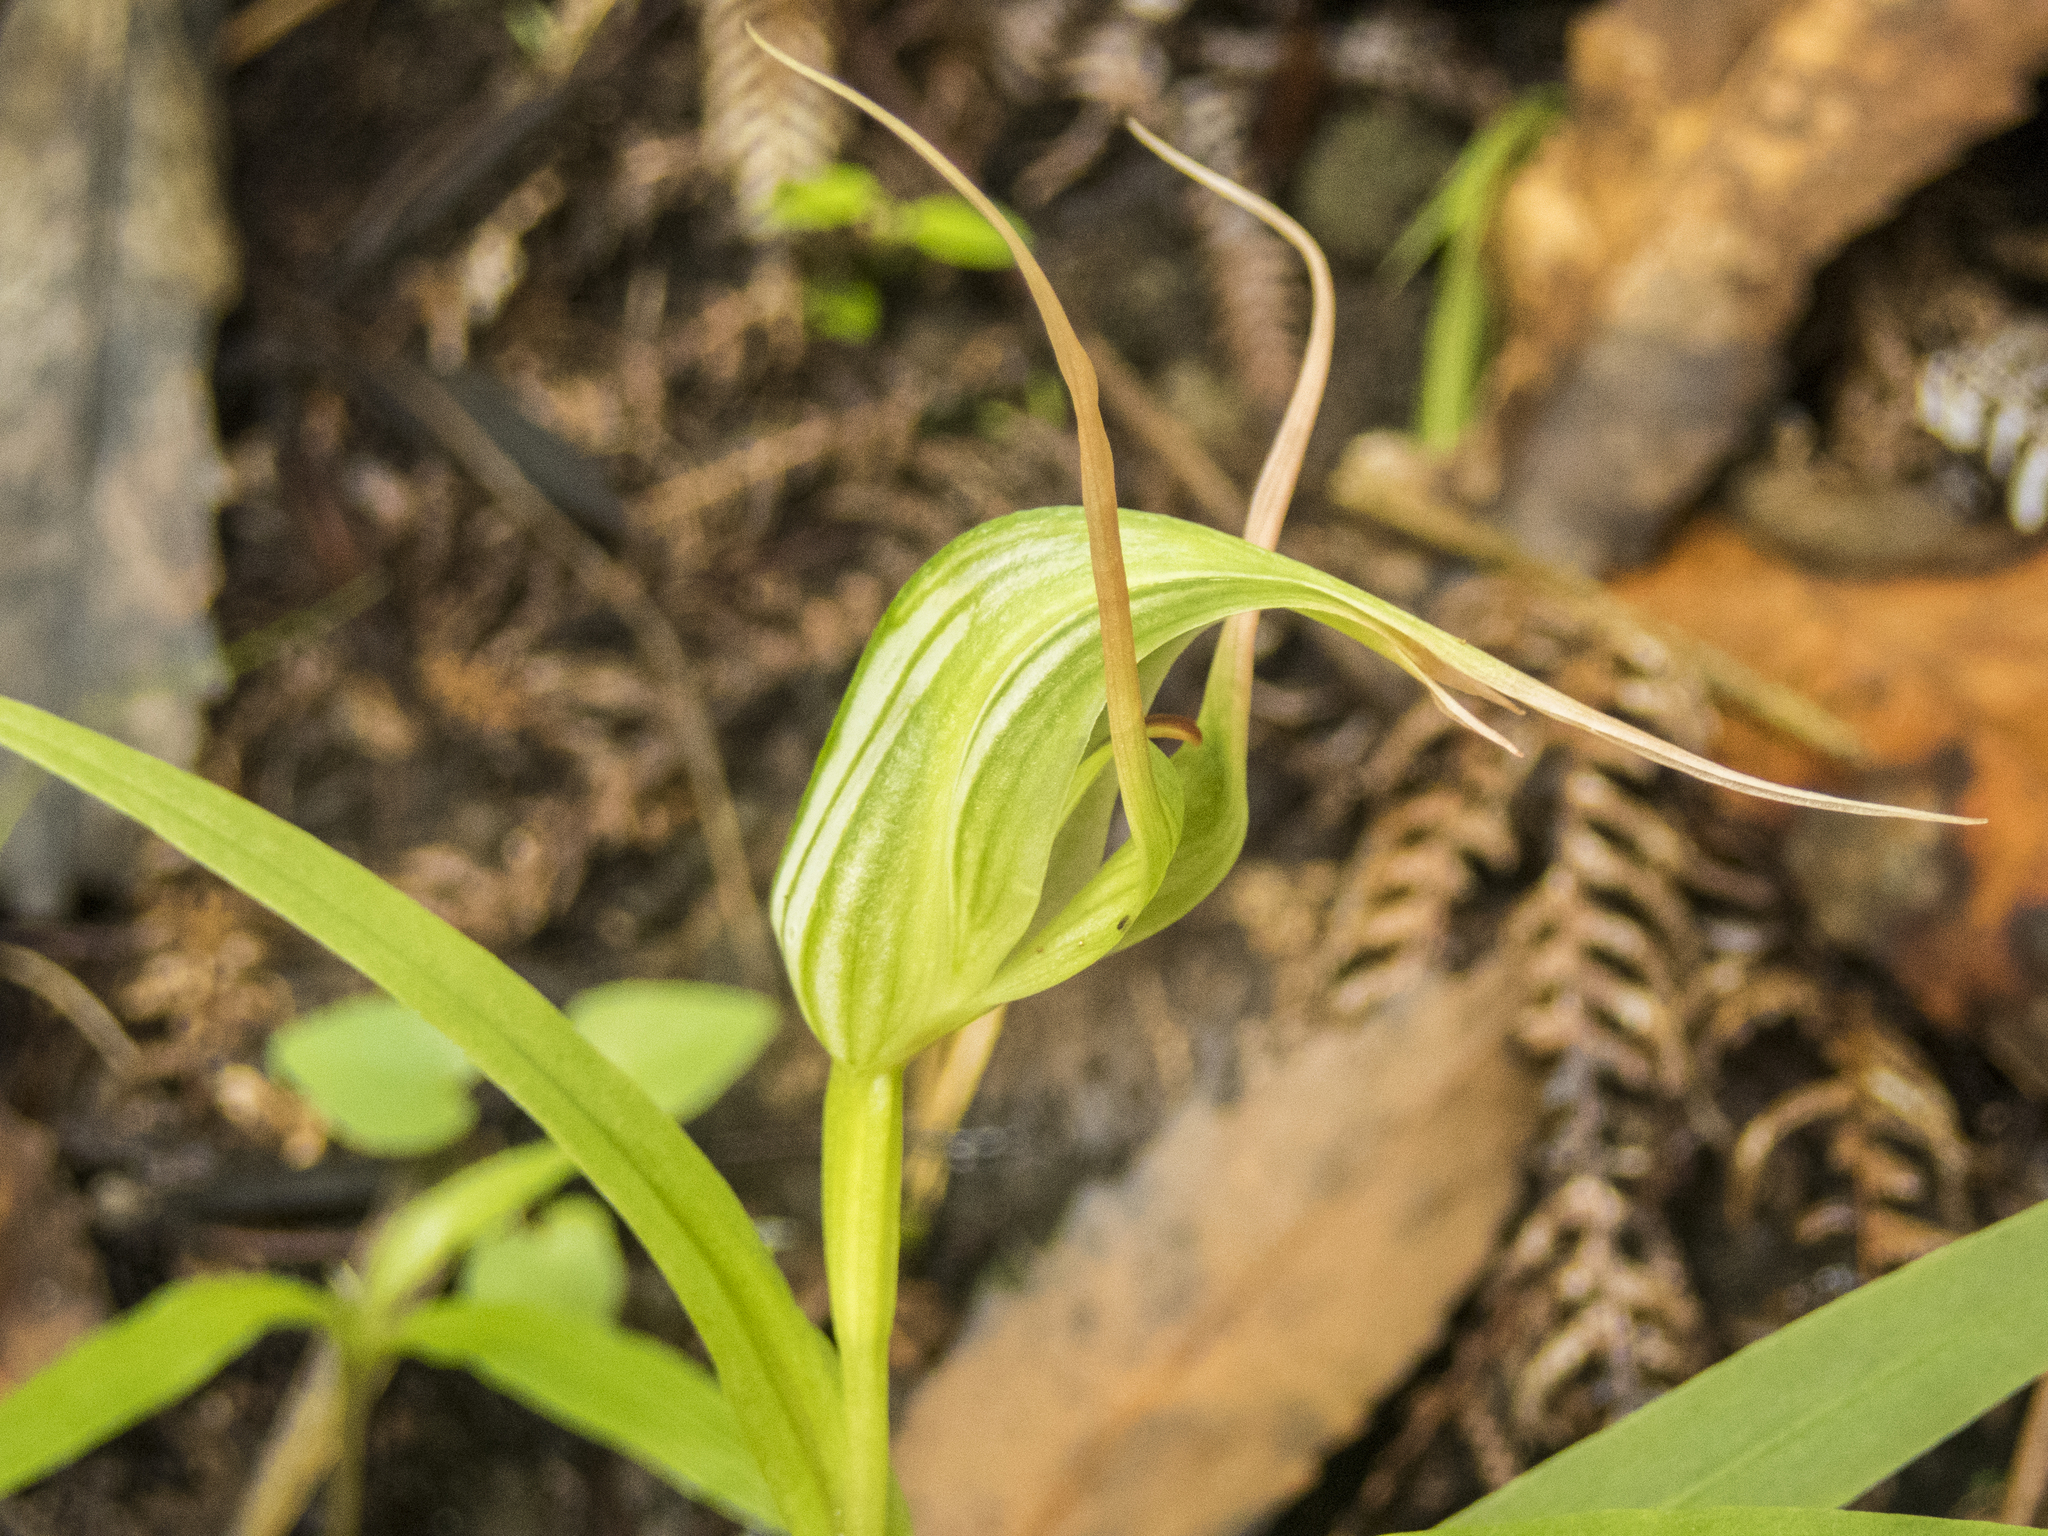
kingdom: Plantae
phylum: Tracheophyta
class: Liliopsida
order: Asparagales
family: Orchidaceae
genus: Pterostylis
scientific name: Pterostylis banksii
